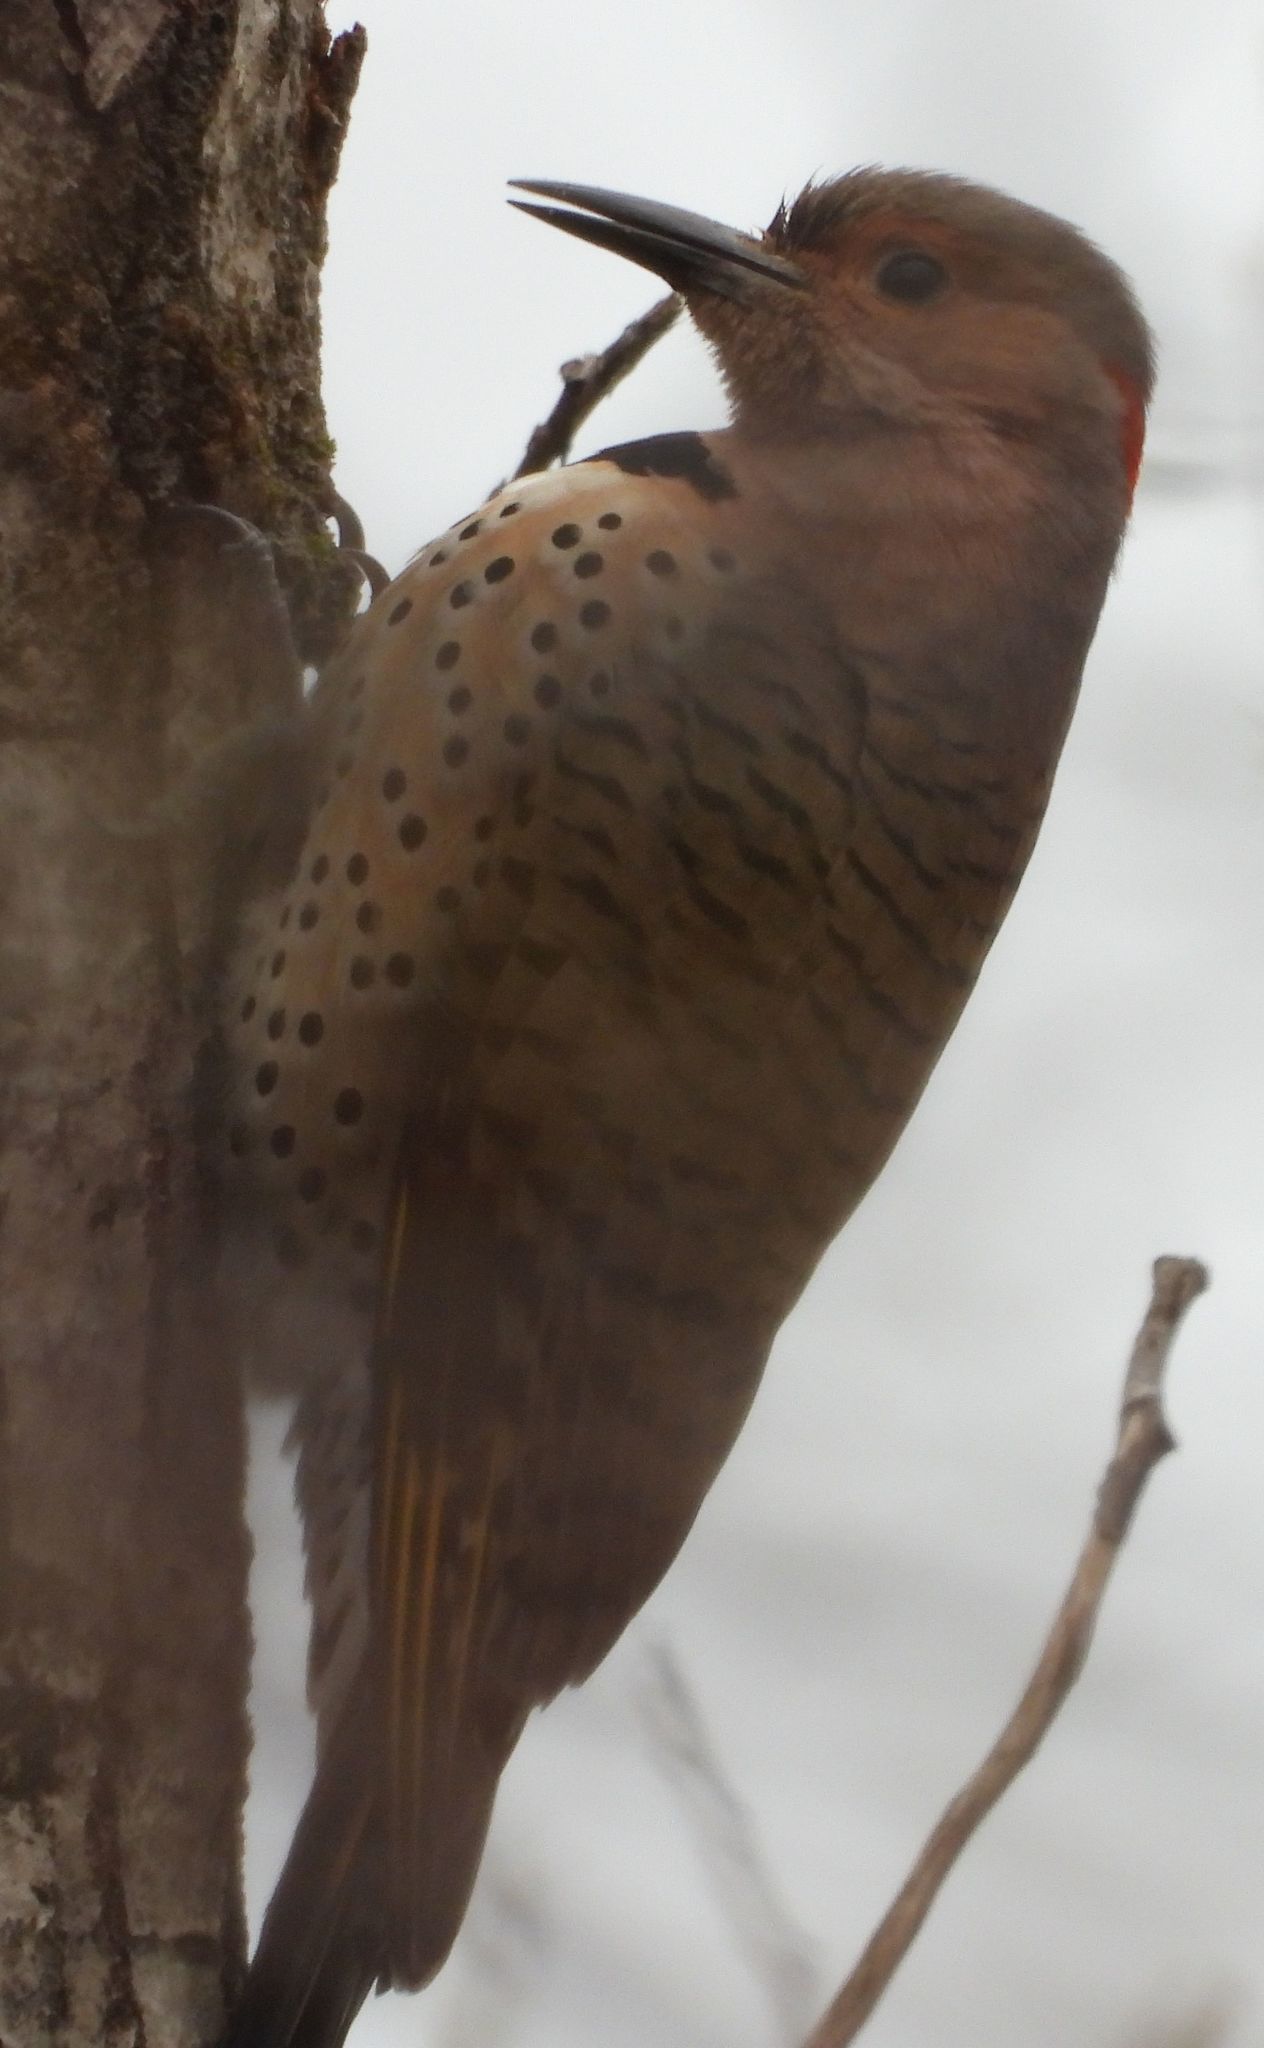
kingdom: Animalia
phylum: Chordata
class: Aves
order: Piciformes
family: Picidae
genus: Colaptes
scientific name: Colaptes auratus
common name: Northern flicker
